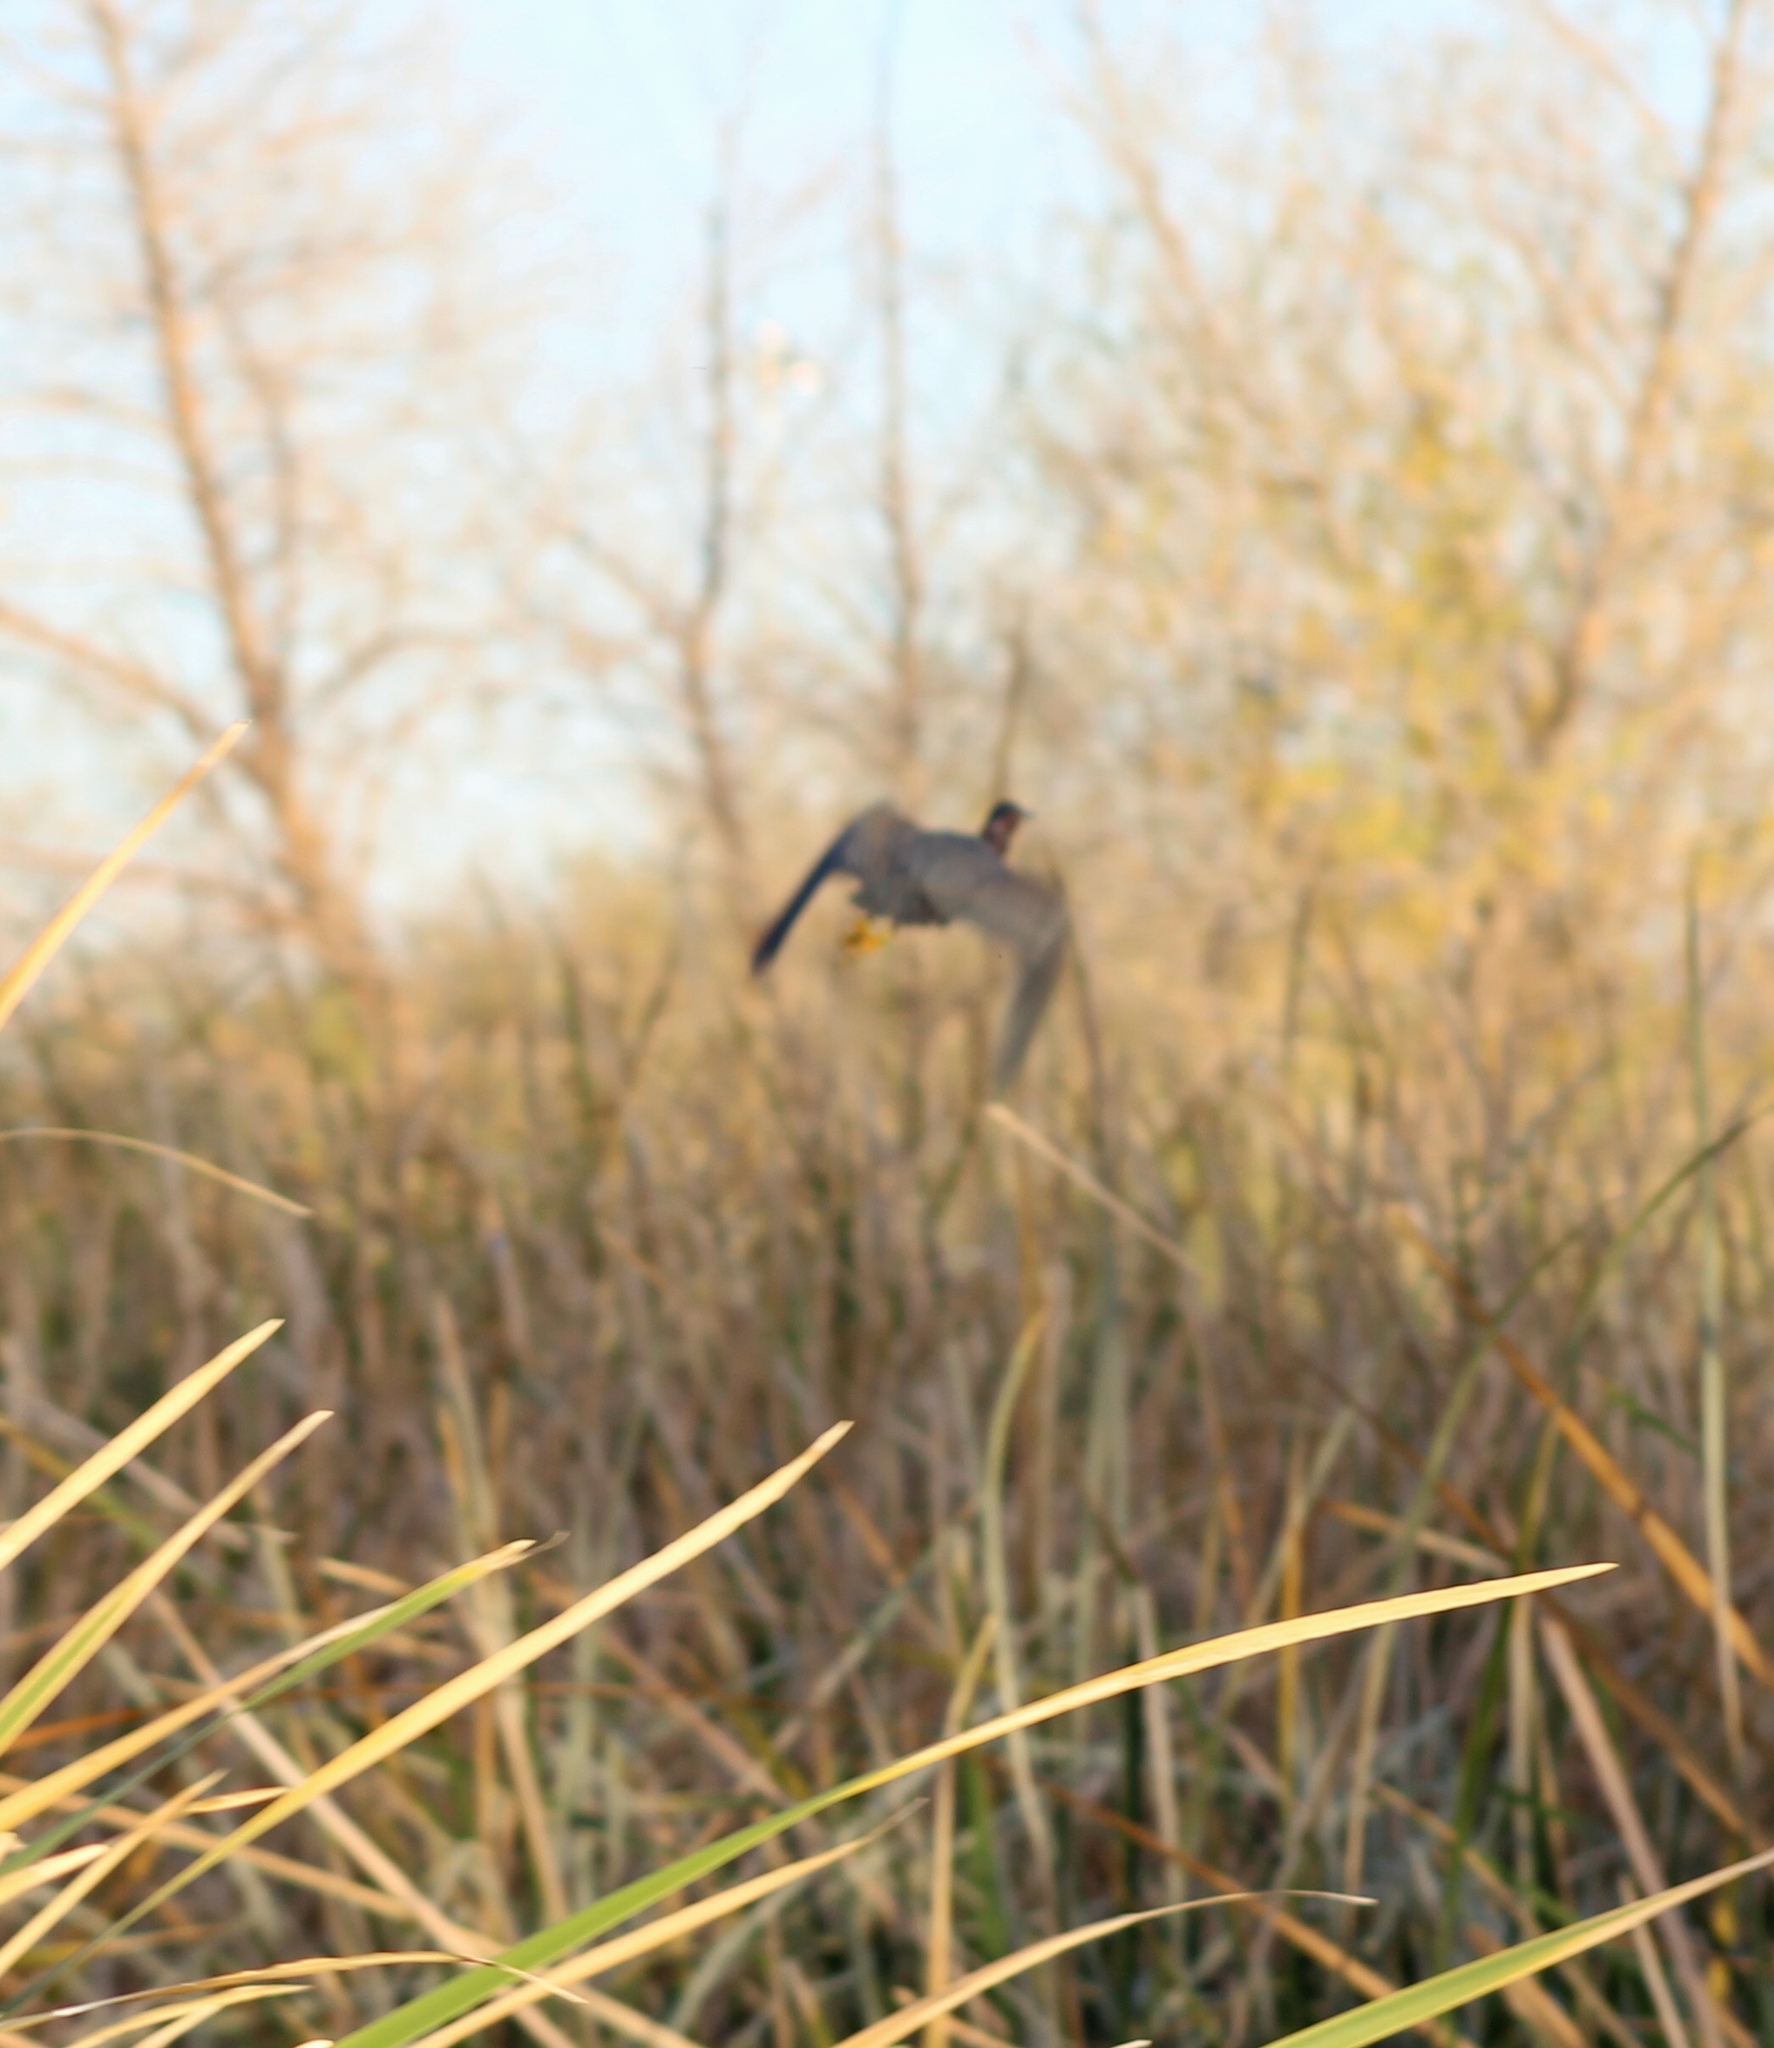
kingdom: Animalia
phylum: Chordata
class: Aves
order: Pelecaniformes
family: Ardeidae
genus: Butorides
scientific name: Butorides virescens
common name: Green heron
